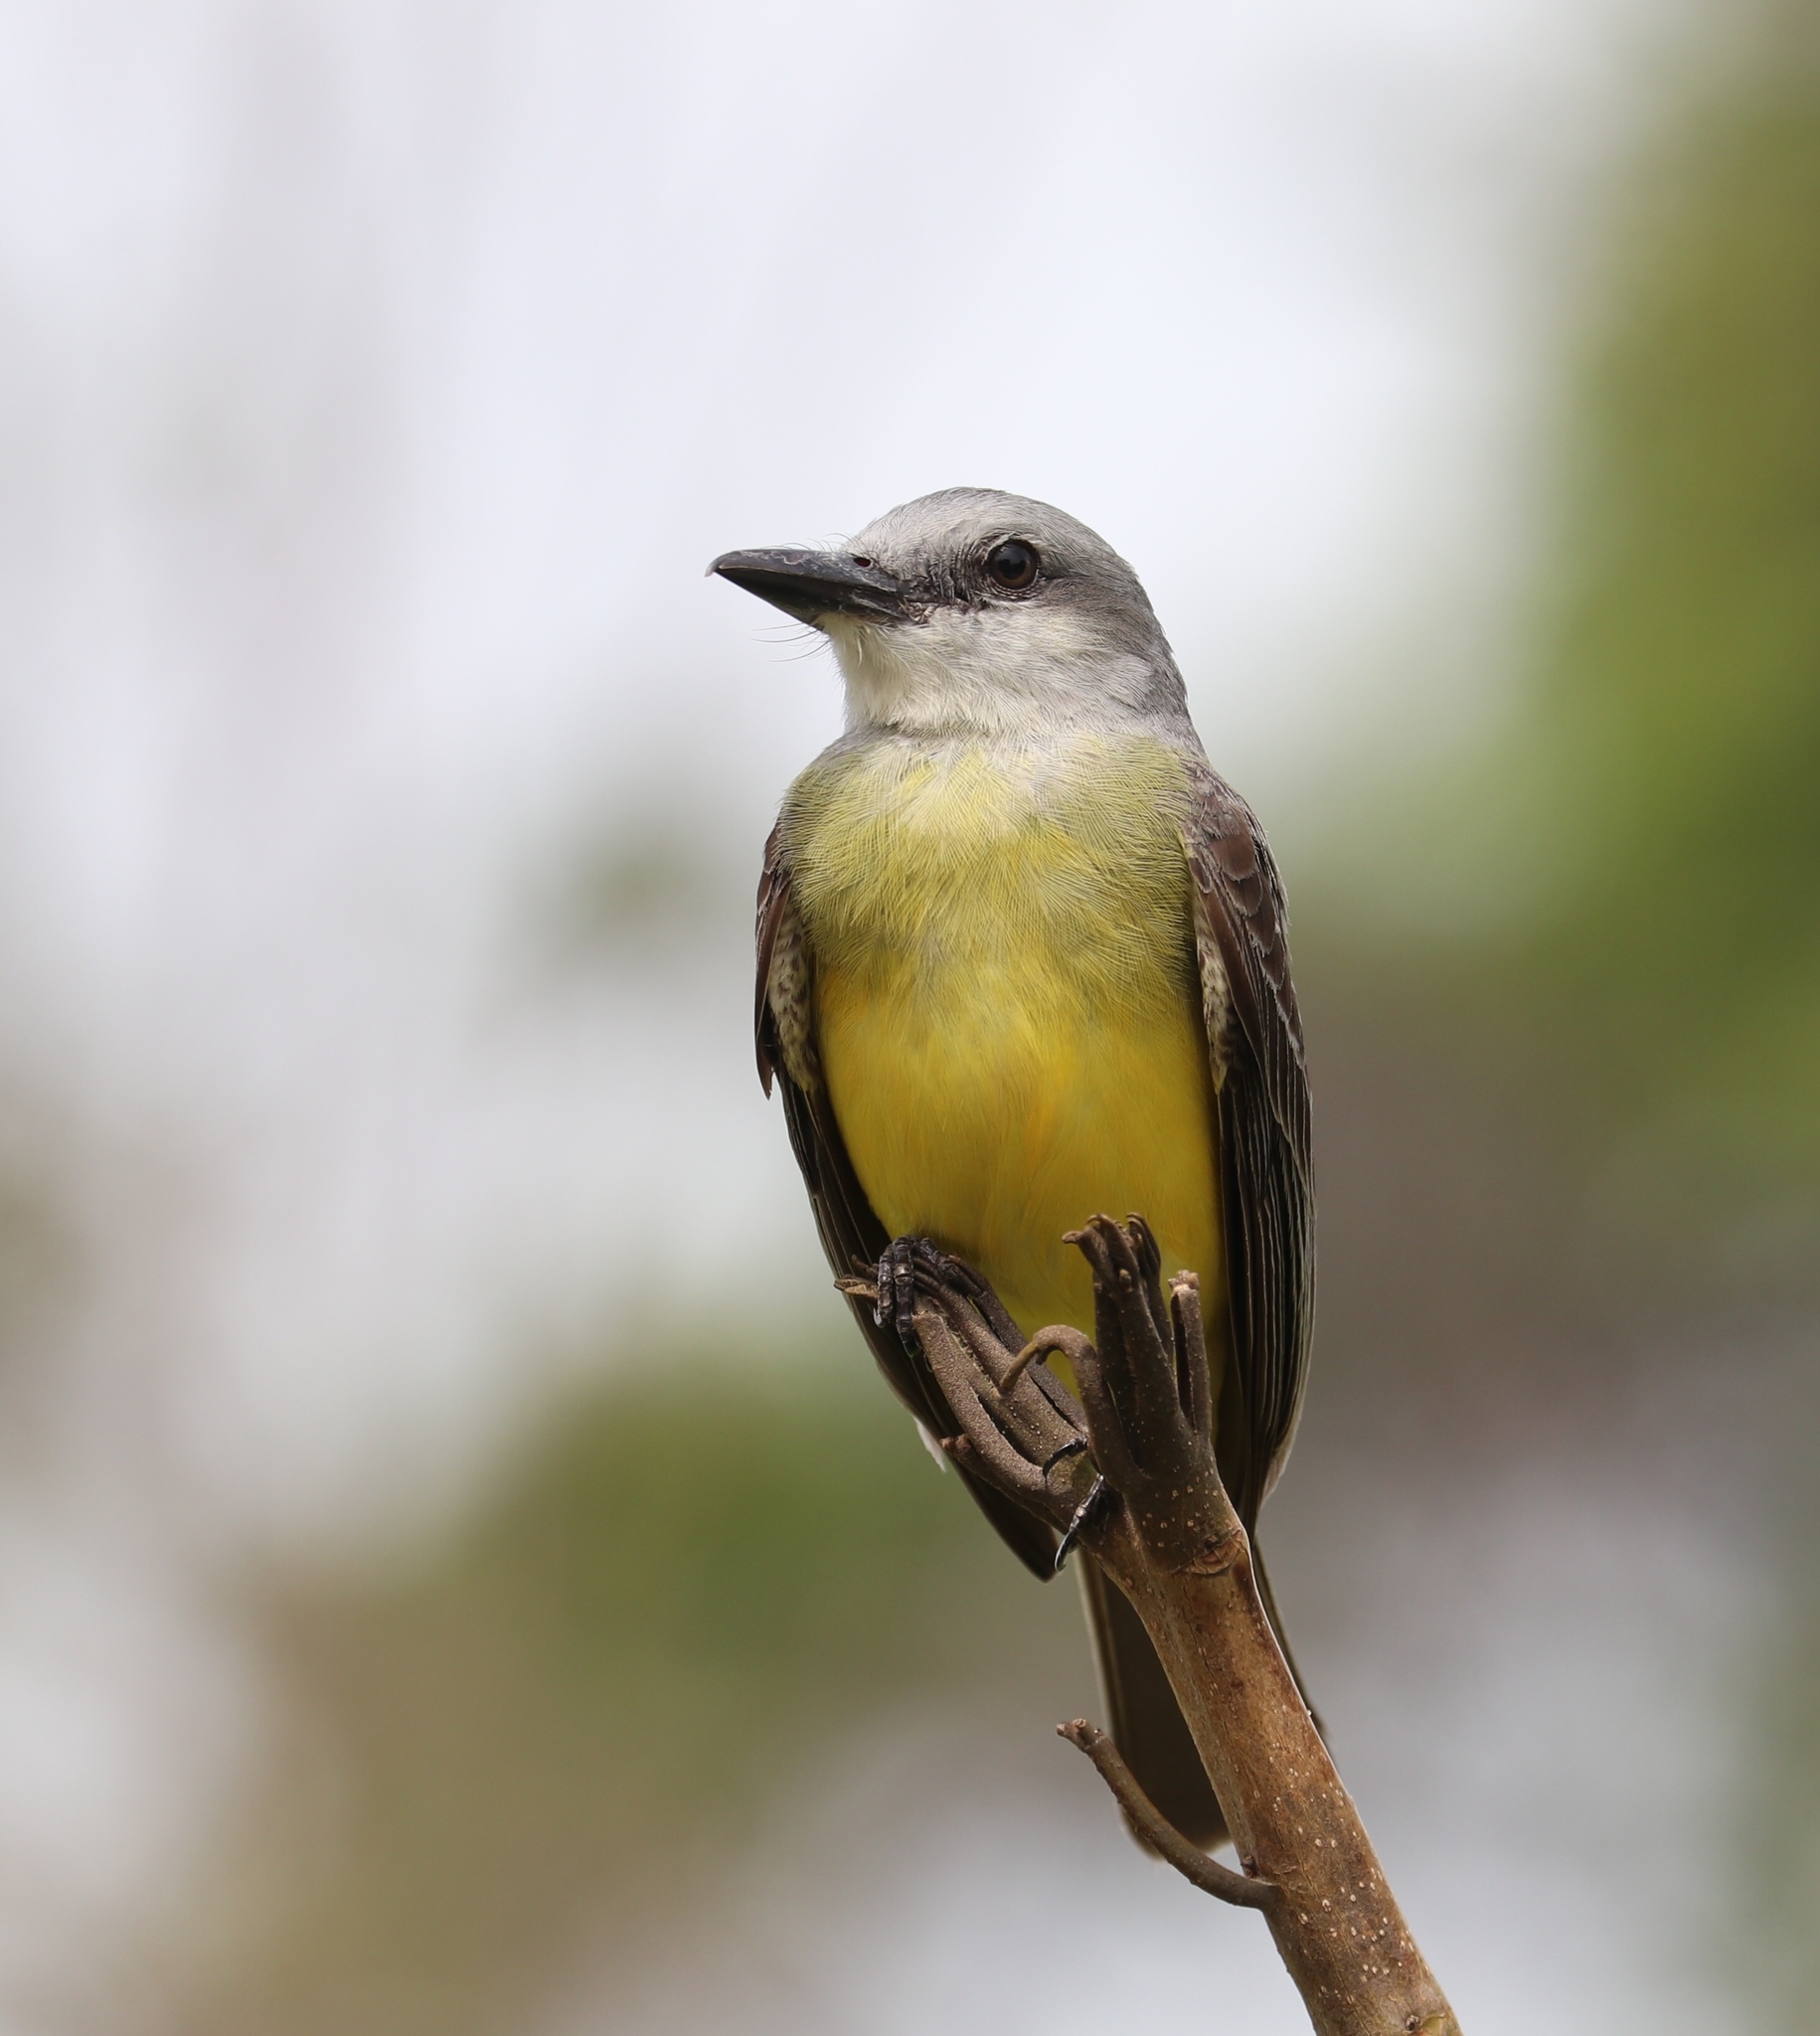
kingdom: Animalia
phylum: Chordata
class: Aves
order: Passeriformes
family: Tyrannidae
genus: Tyrannus
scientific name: Tyrannus melancholicus
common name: Tropical kingbird
